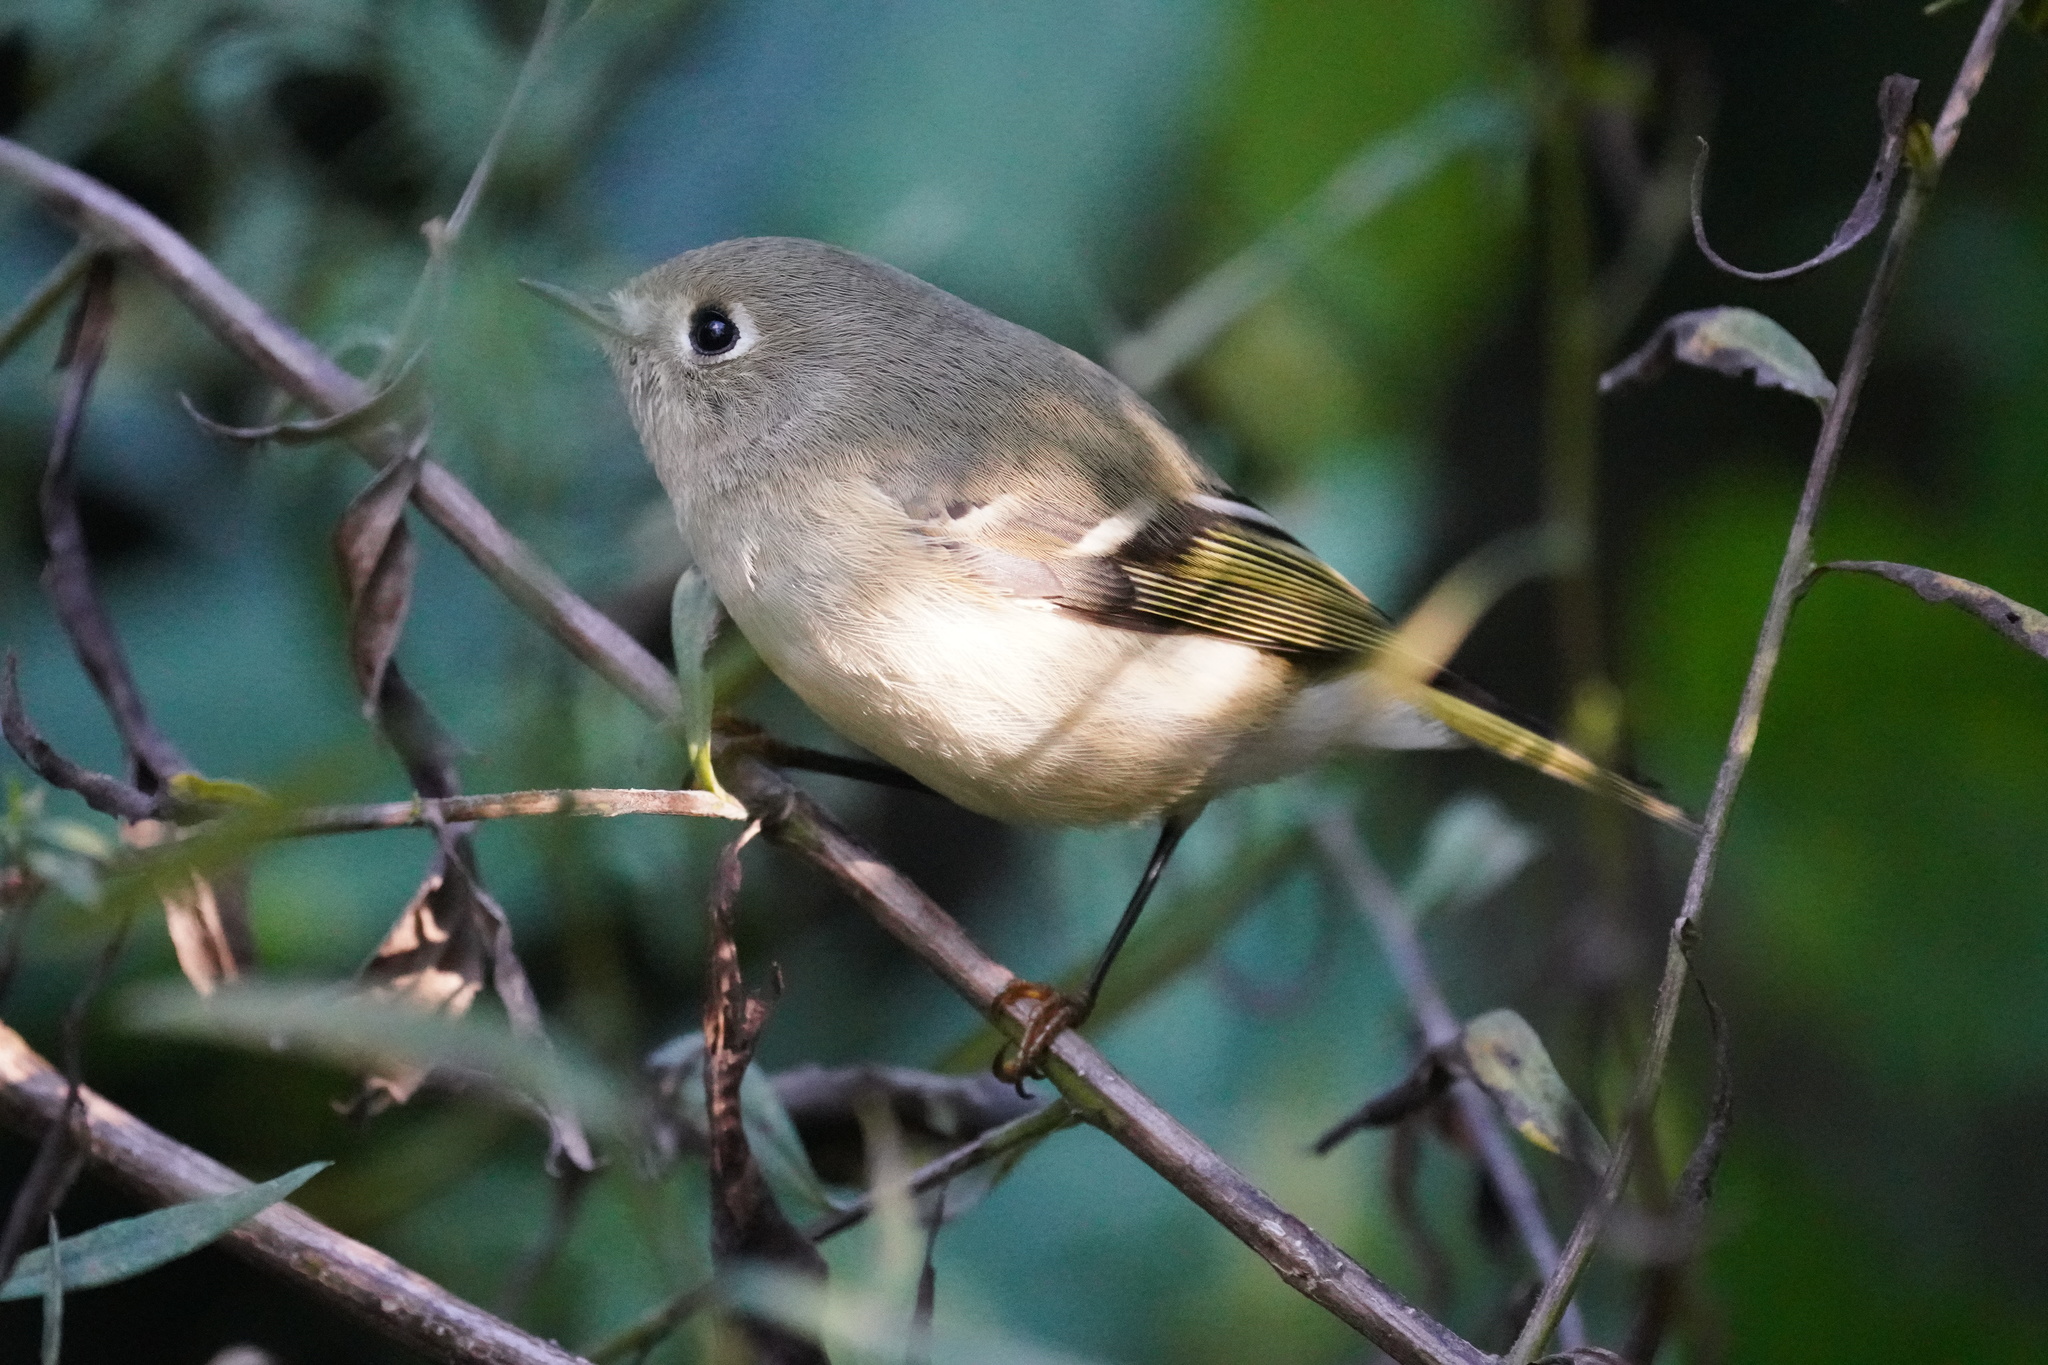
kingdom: Animalia
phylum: Chordata
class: Aves
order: Passeriformes
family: Regulidae
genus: Regulus
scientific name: Regulus calendula
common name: Ruby-crowned kinglet
